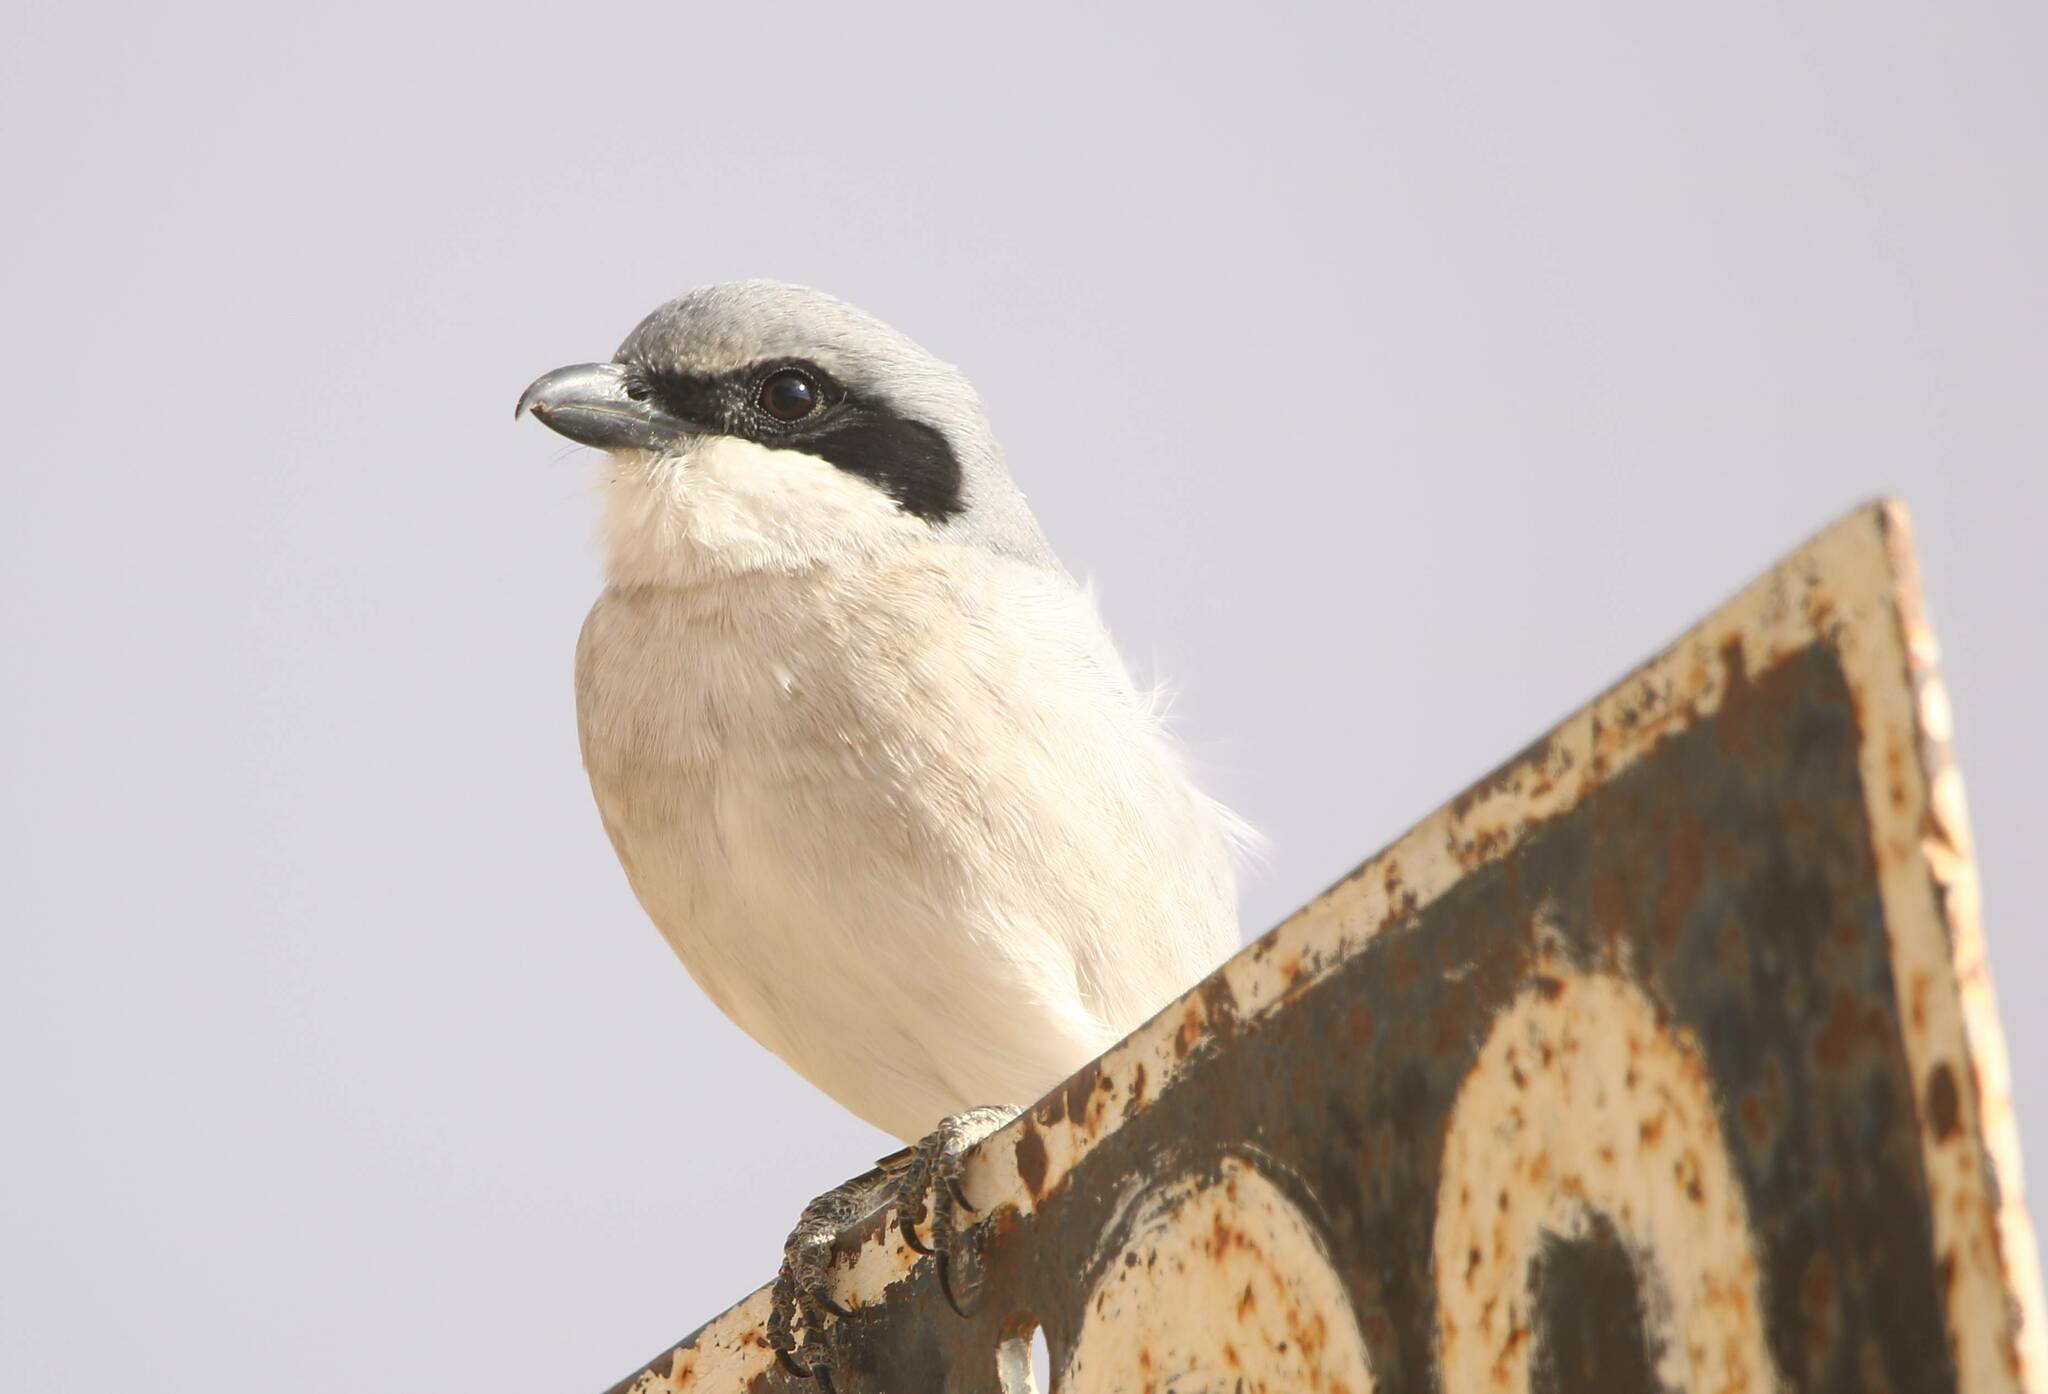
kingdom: Animalia
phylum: Chordata
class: Aves
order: Passeriformes
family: Laniidae
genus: Lanius
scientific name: Lanius excubitor
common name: Great grey shrike
